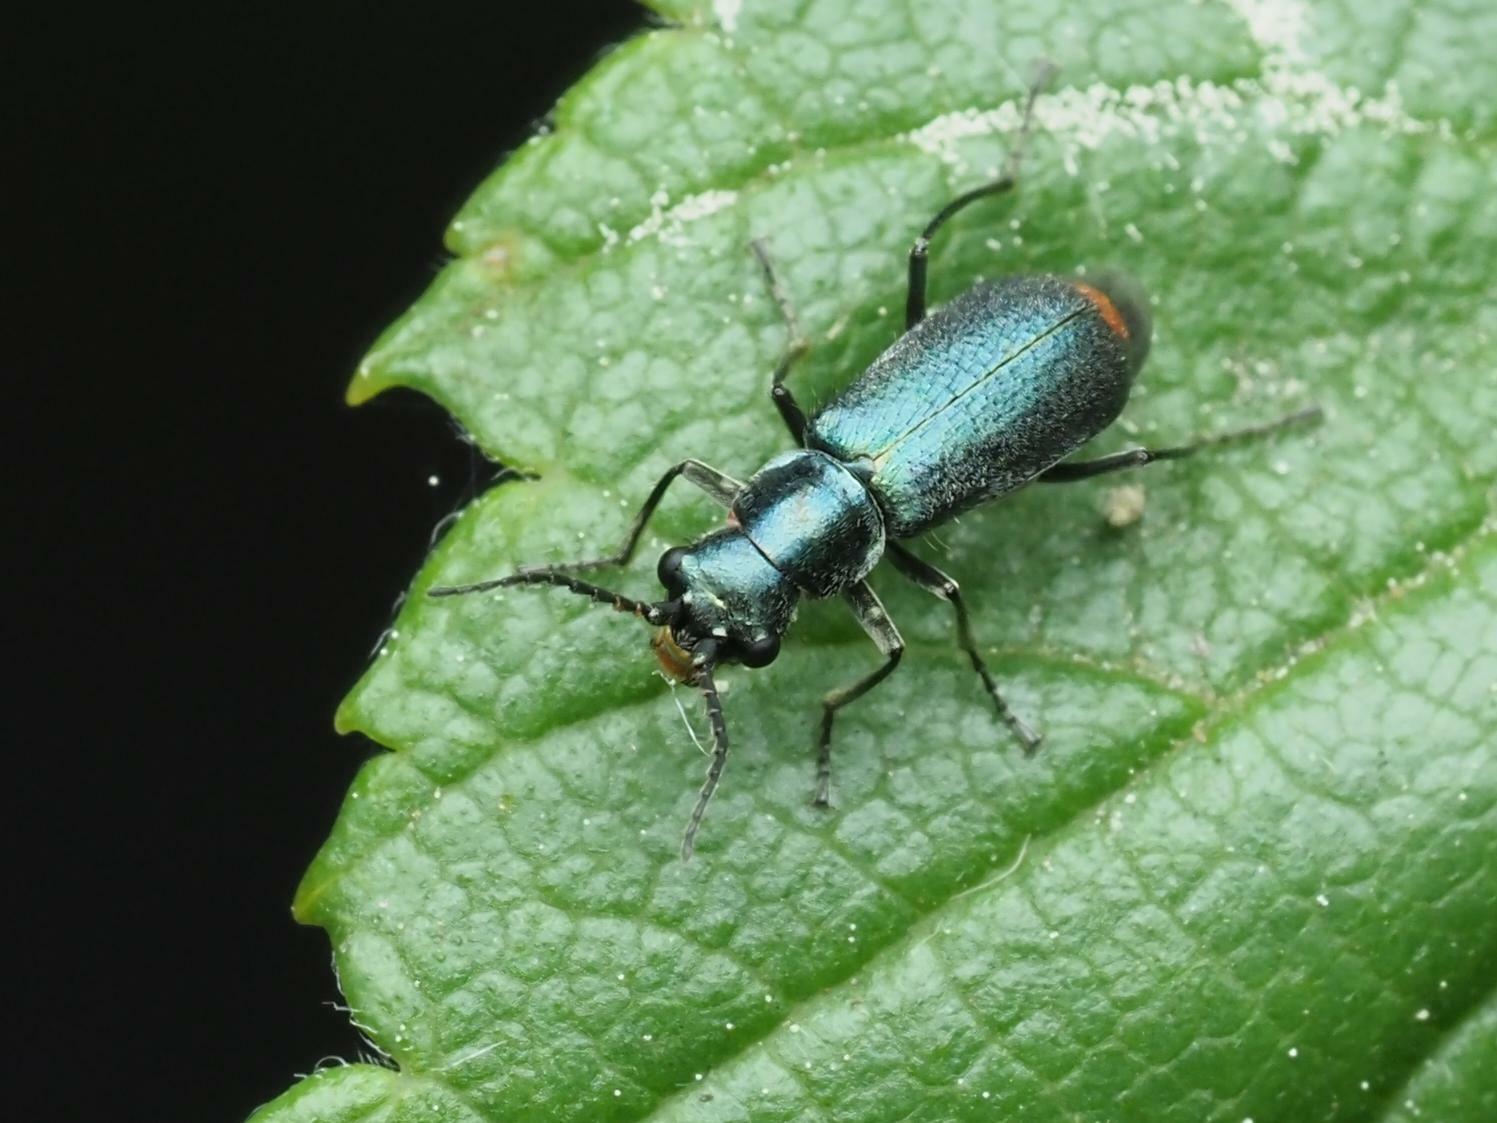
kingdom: Animalia
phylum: Arthropoda
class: Insecta
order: Coleoptera
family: Malachiidae
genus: Cordylepherus
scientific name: Cordylepherus viridis
